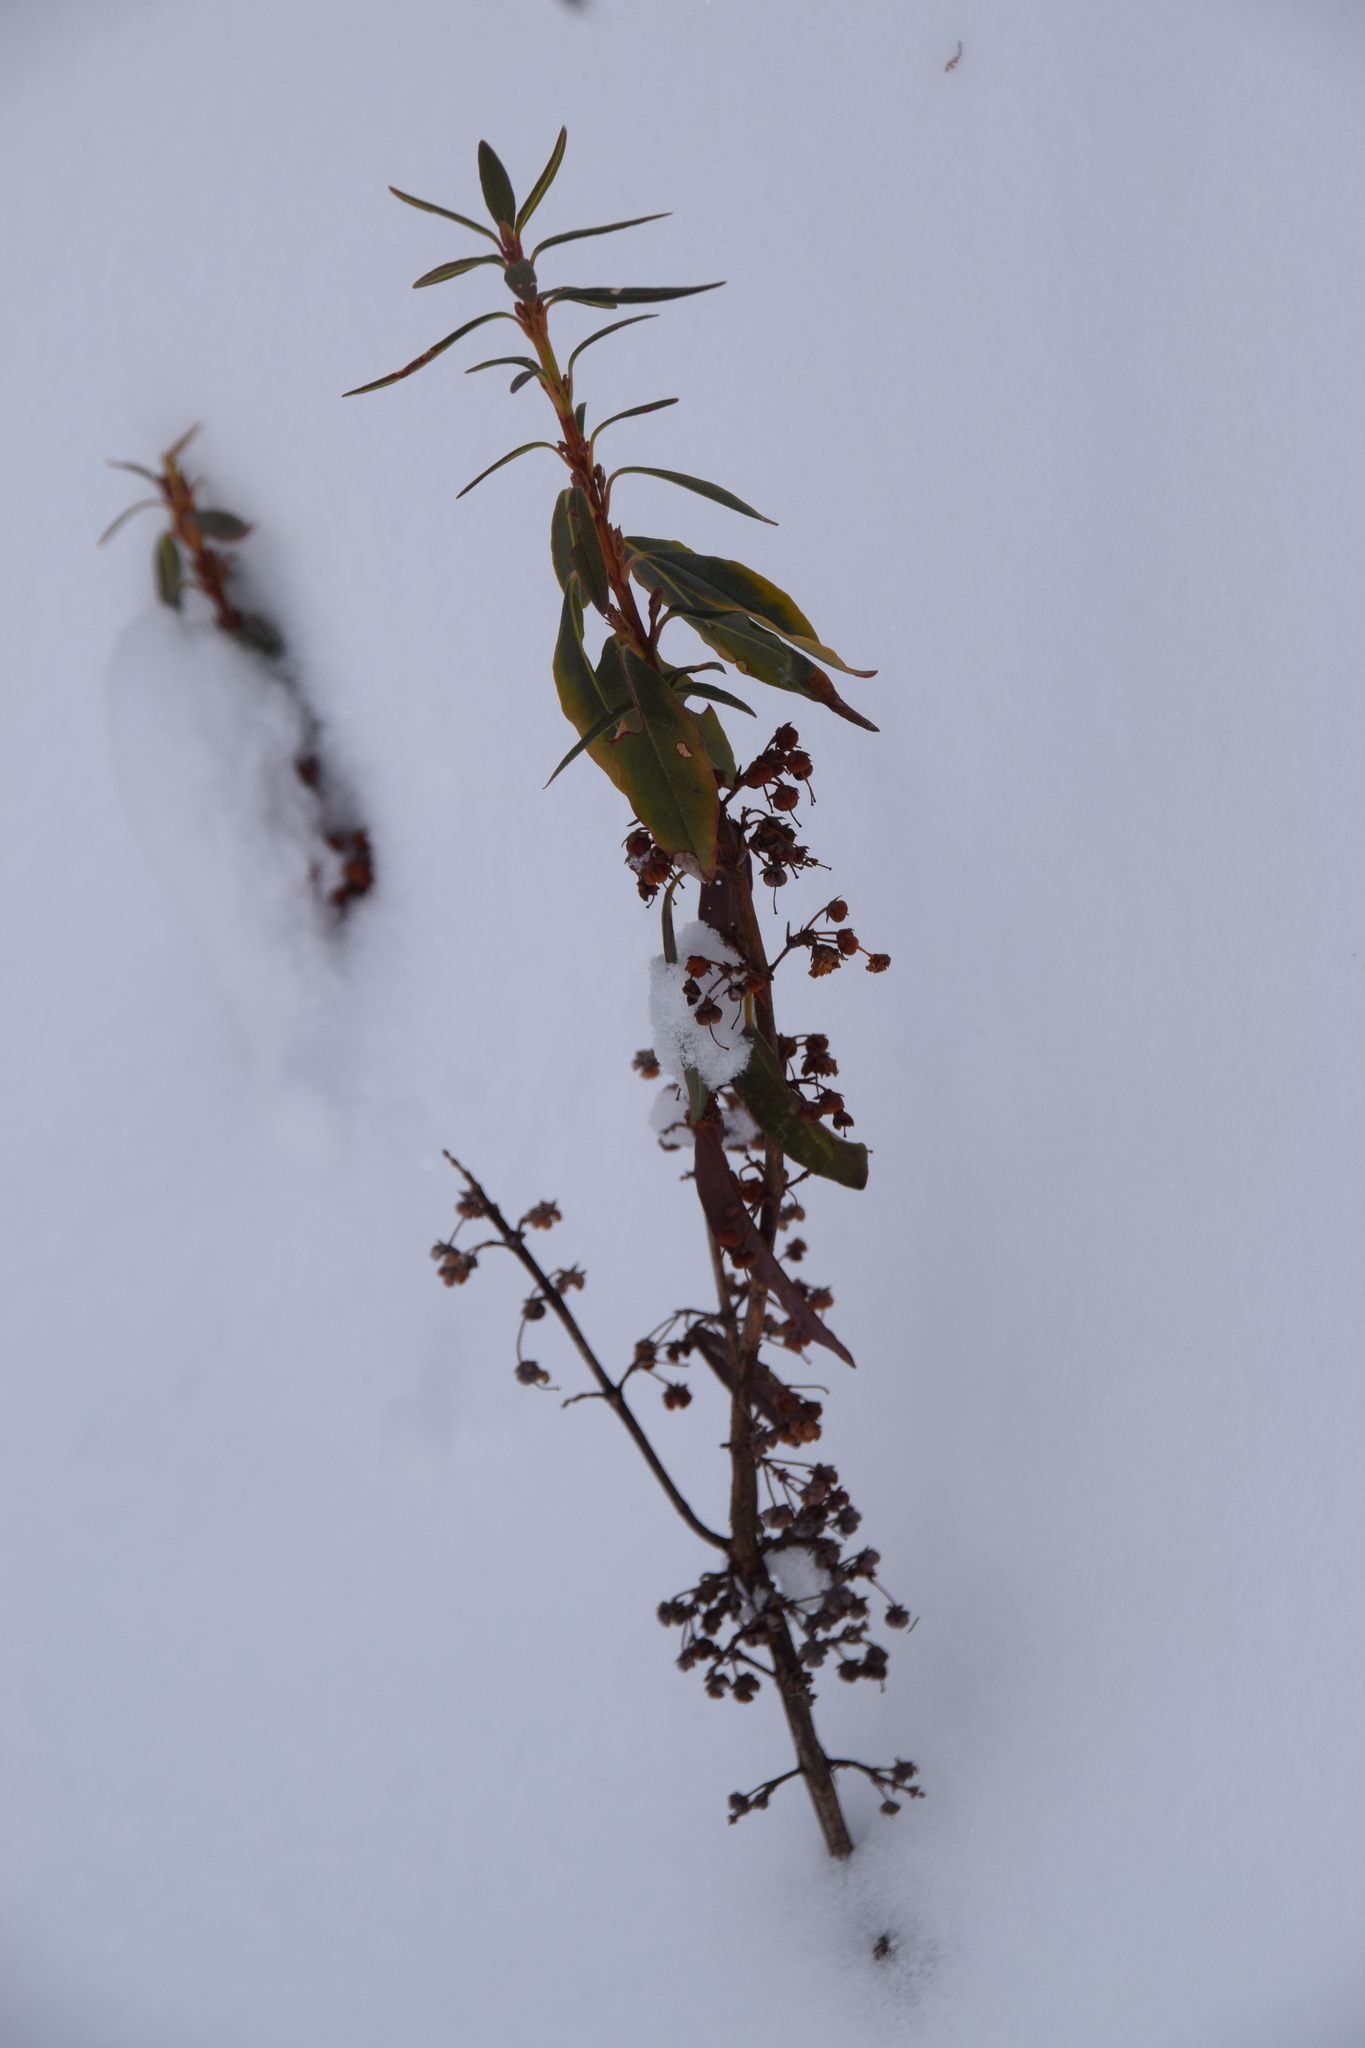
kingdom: Plantae
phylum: Tracheophyta
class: Magnoliopsida
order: Ericales
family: Ericaceae
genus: Kalmia
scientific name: Kalmia angustifolia
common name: Sheep-laurel
